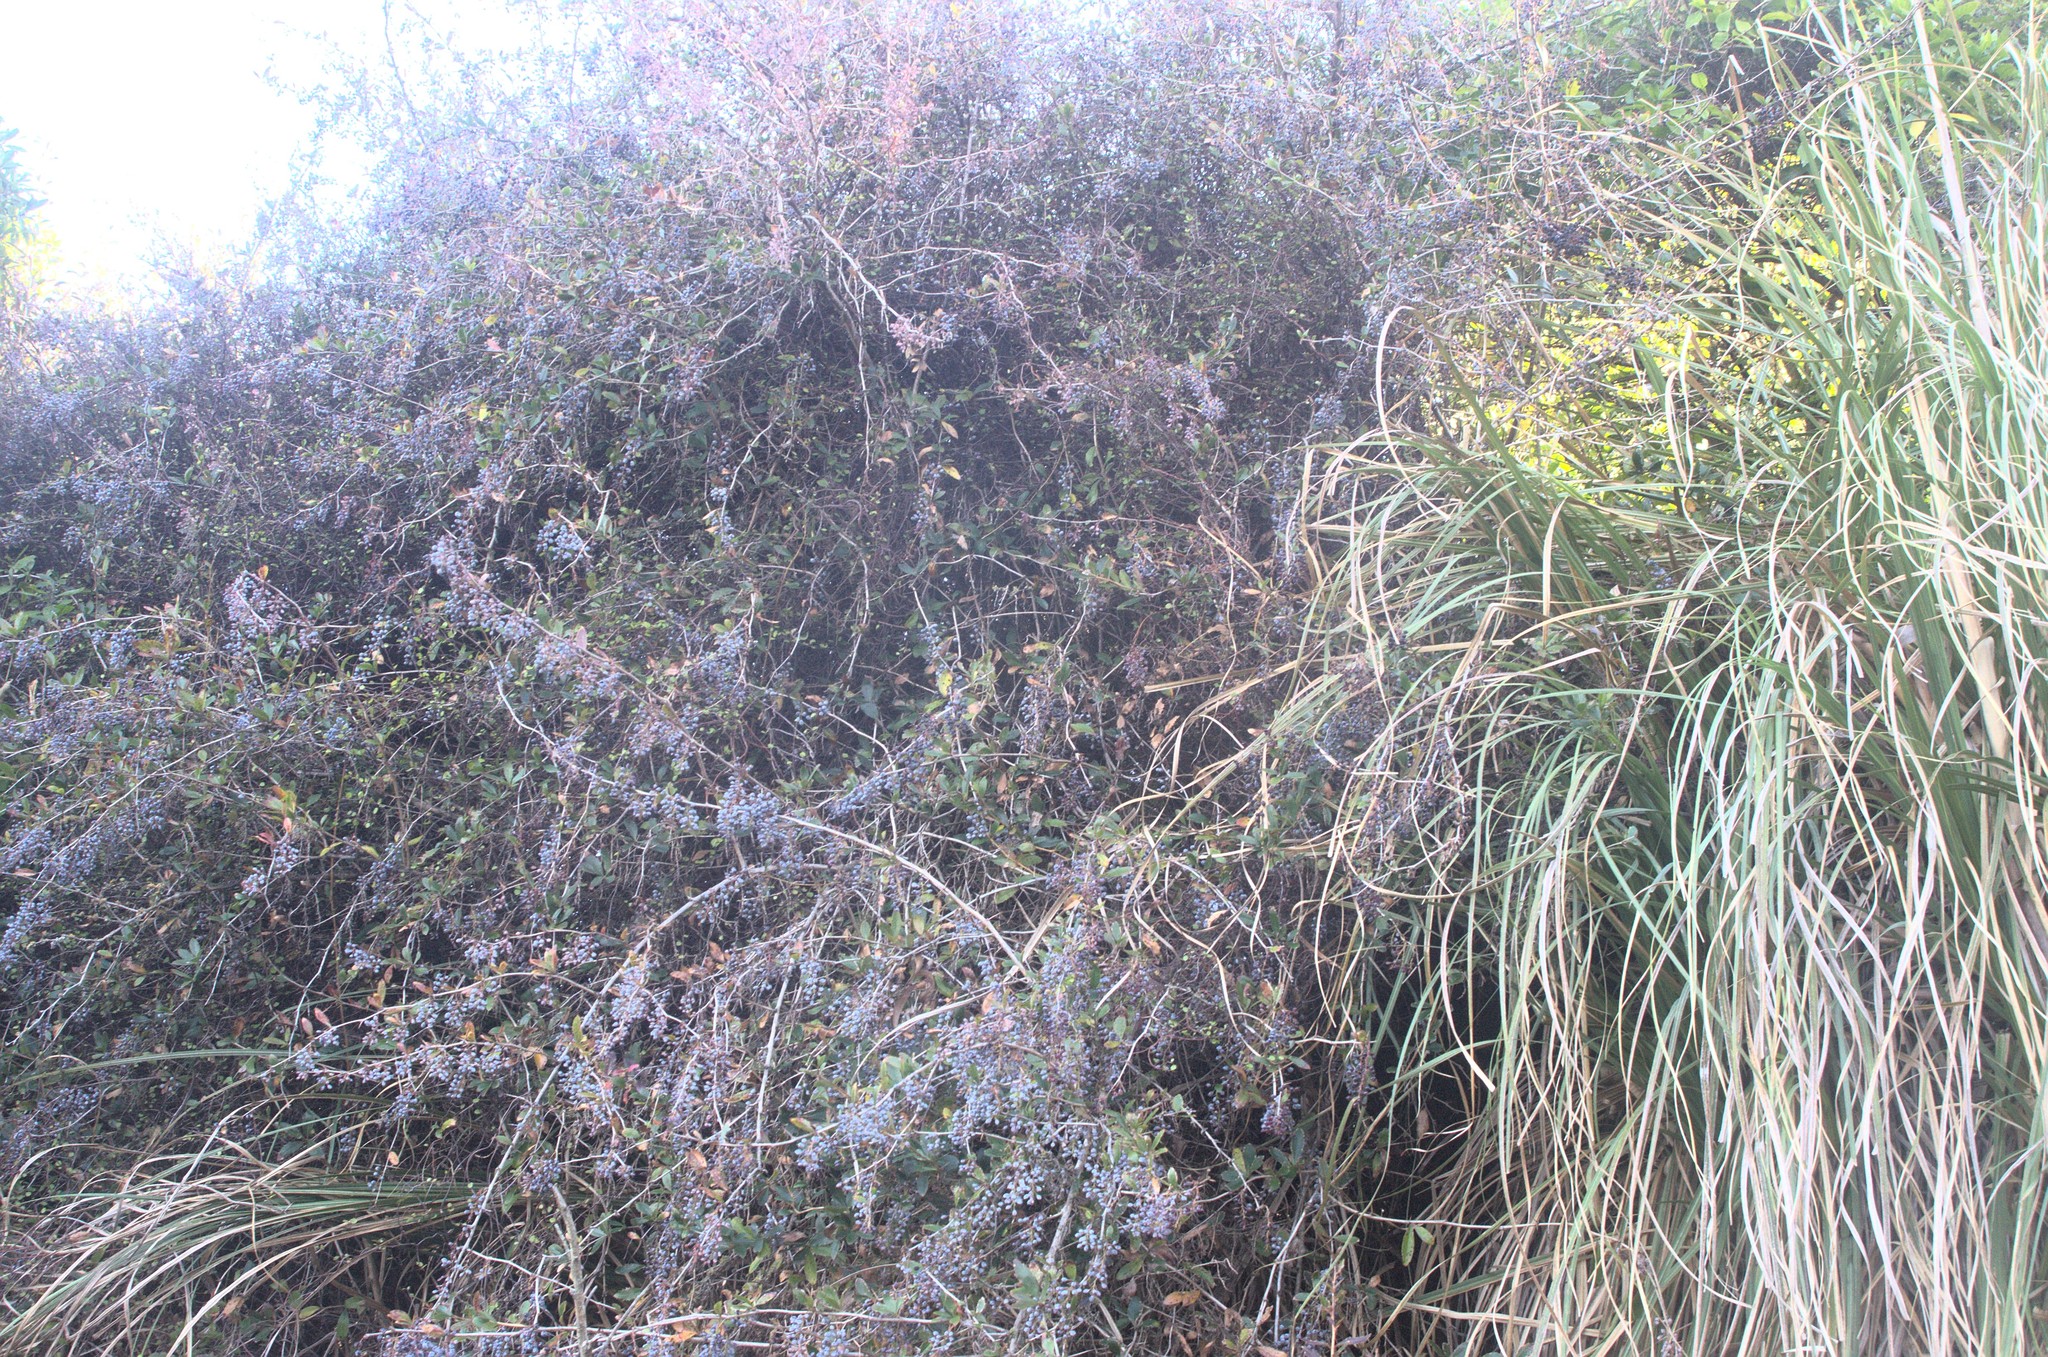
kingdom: Plantae
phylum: Tracheophyta
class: Magnoliopsida
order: Ranunculales
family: Berberidaceae
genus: Berberis
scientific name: Berberis glaucocarpa
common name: Great barberry
